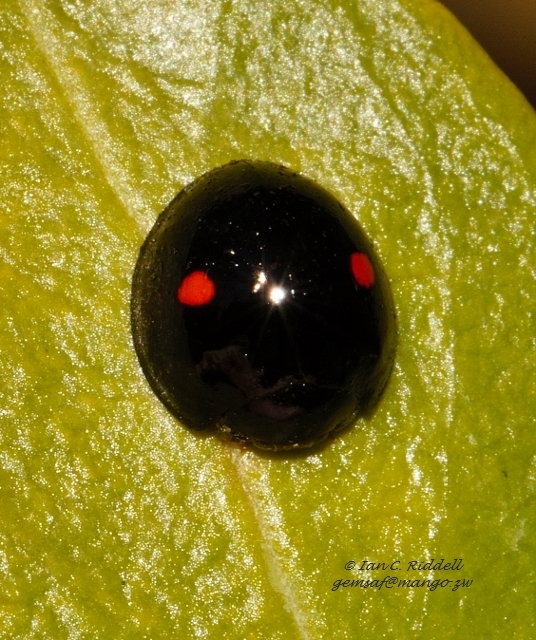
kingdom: Animalia
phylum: Arthropoda
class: Insecta
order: Coleoptera
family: Coccinellidae
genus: Chilocorus
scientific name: Chilocorus distigma
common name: Ladybird beetle
